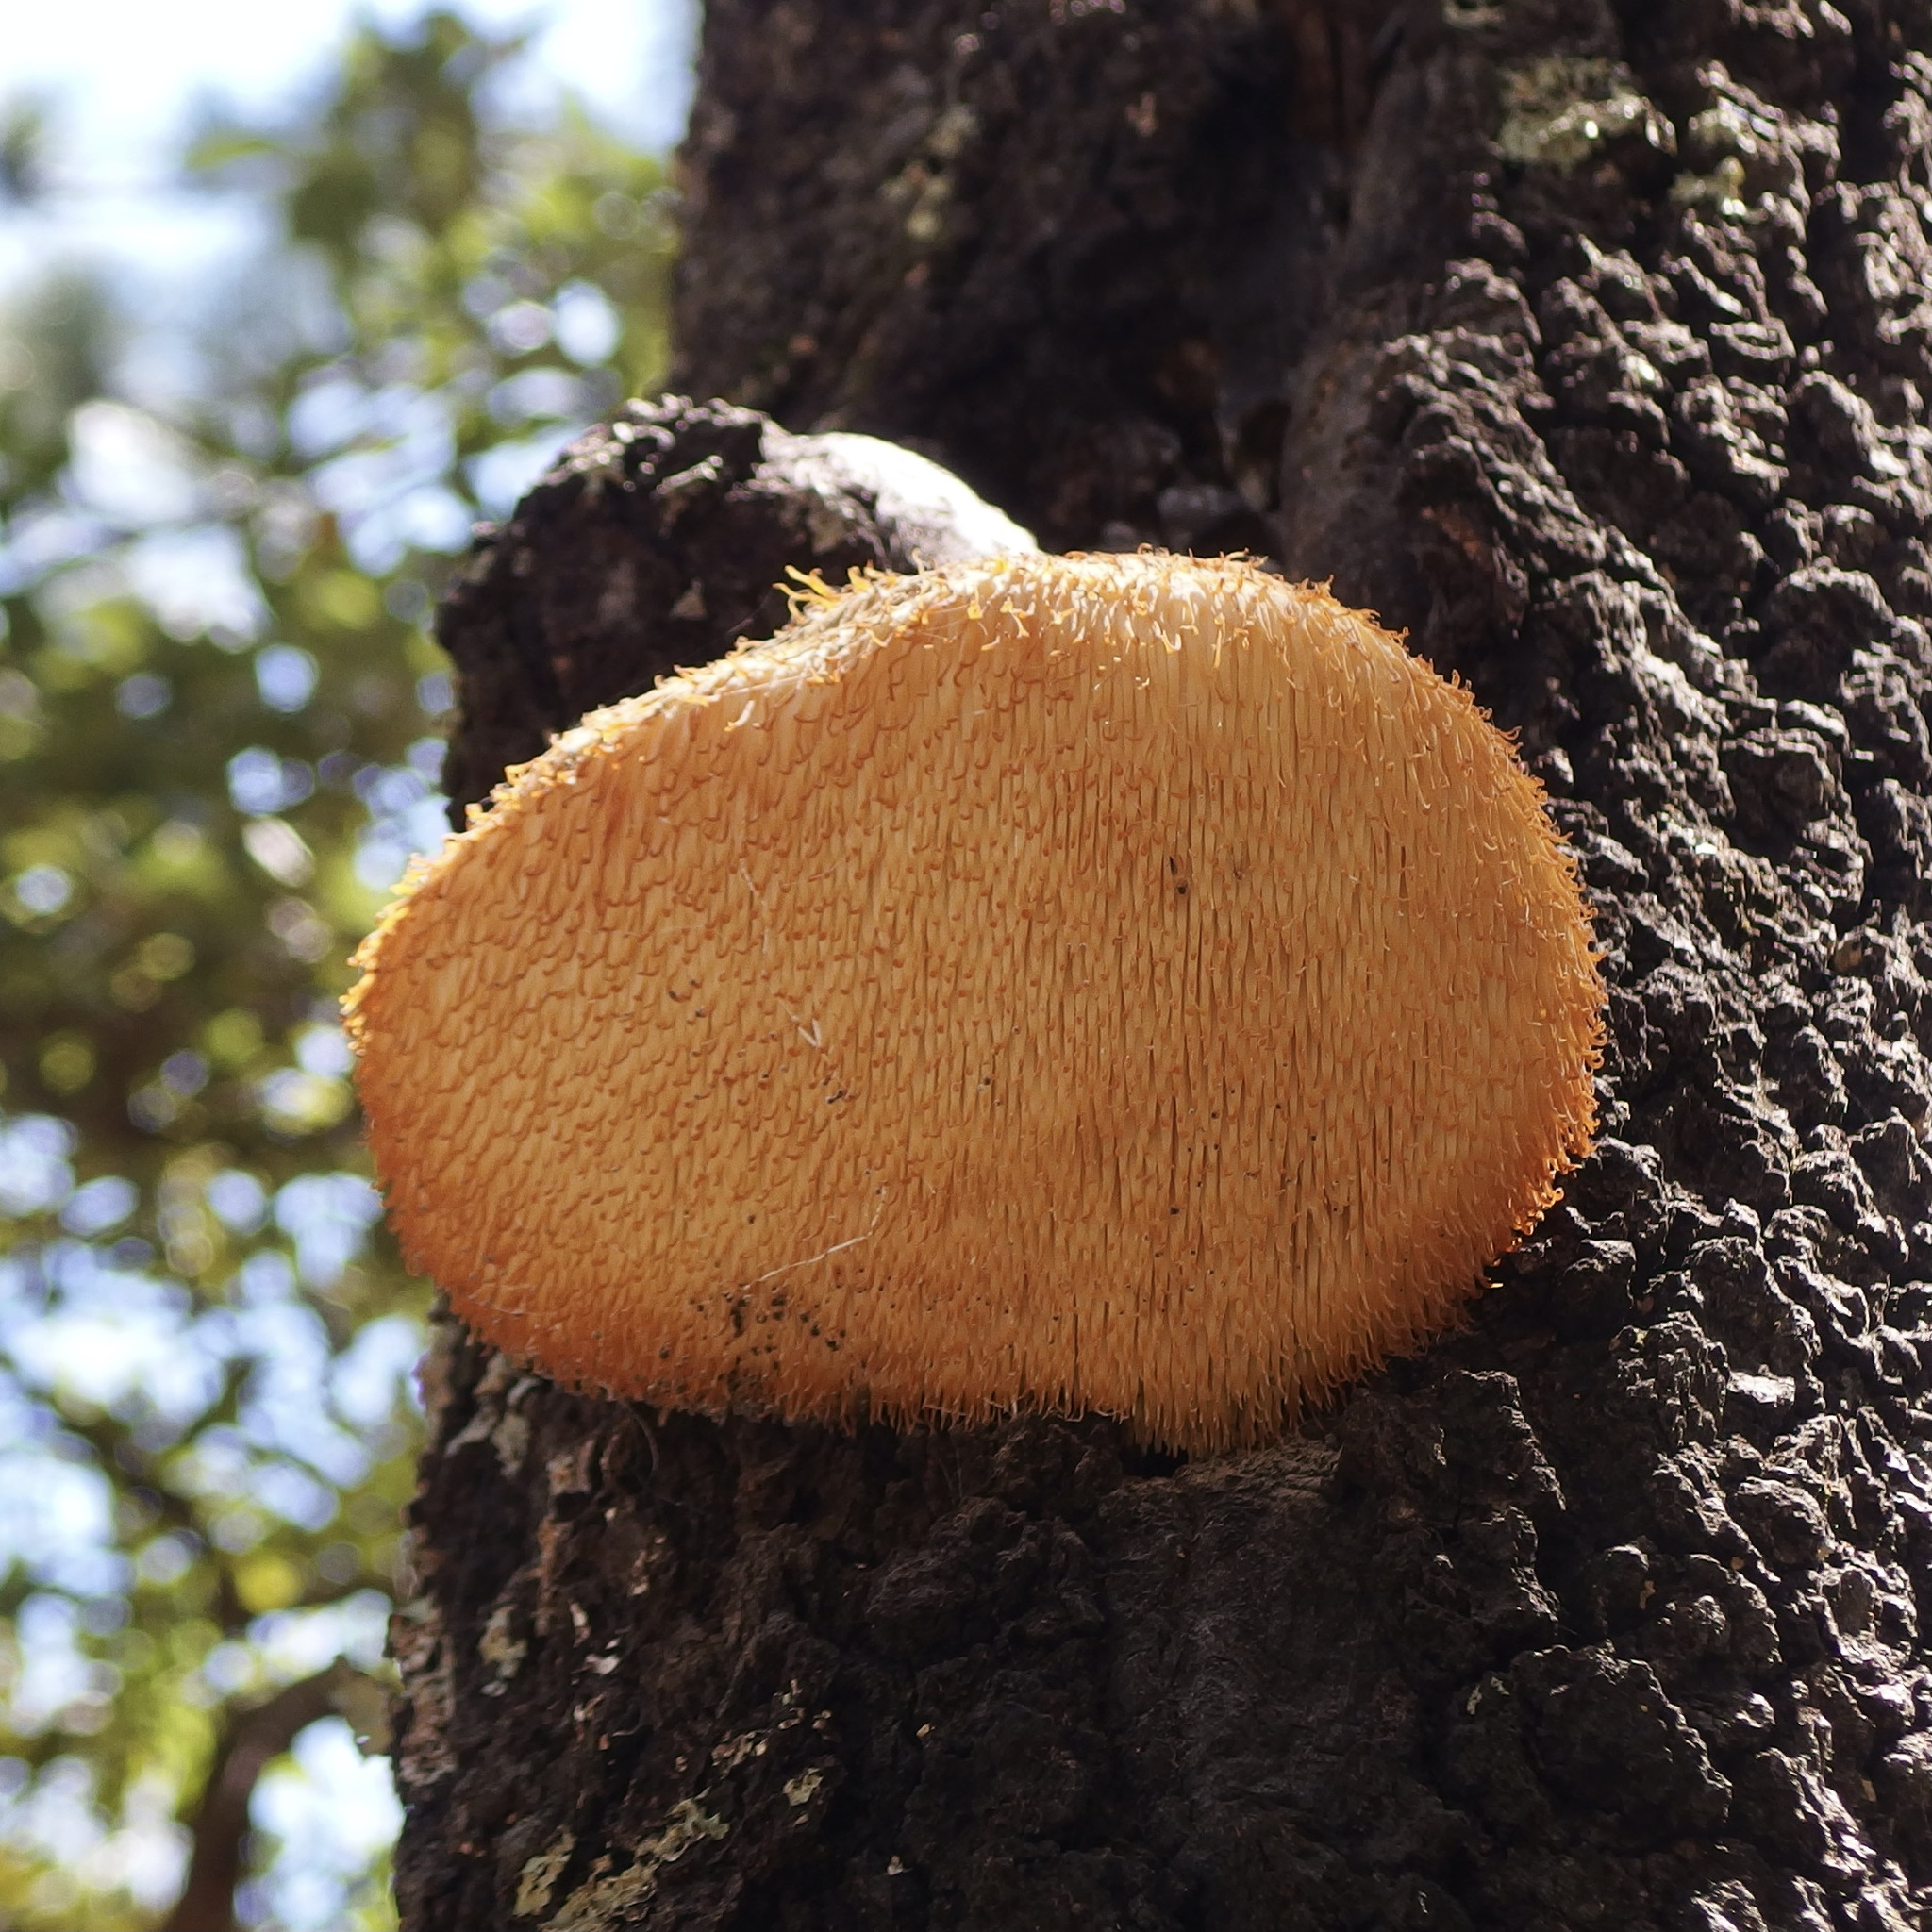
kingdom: Fungi
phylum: Basidiomycota
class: Agaricomycetes
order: Russulales
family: Hericiaceae
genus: Hericium
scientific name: Hericium erinaceus
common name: Bearded tooth
